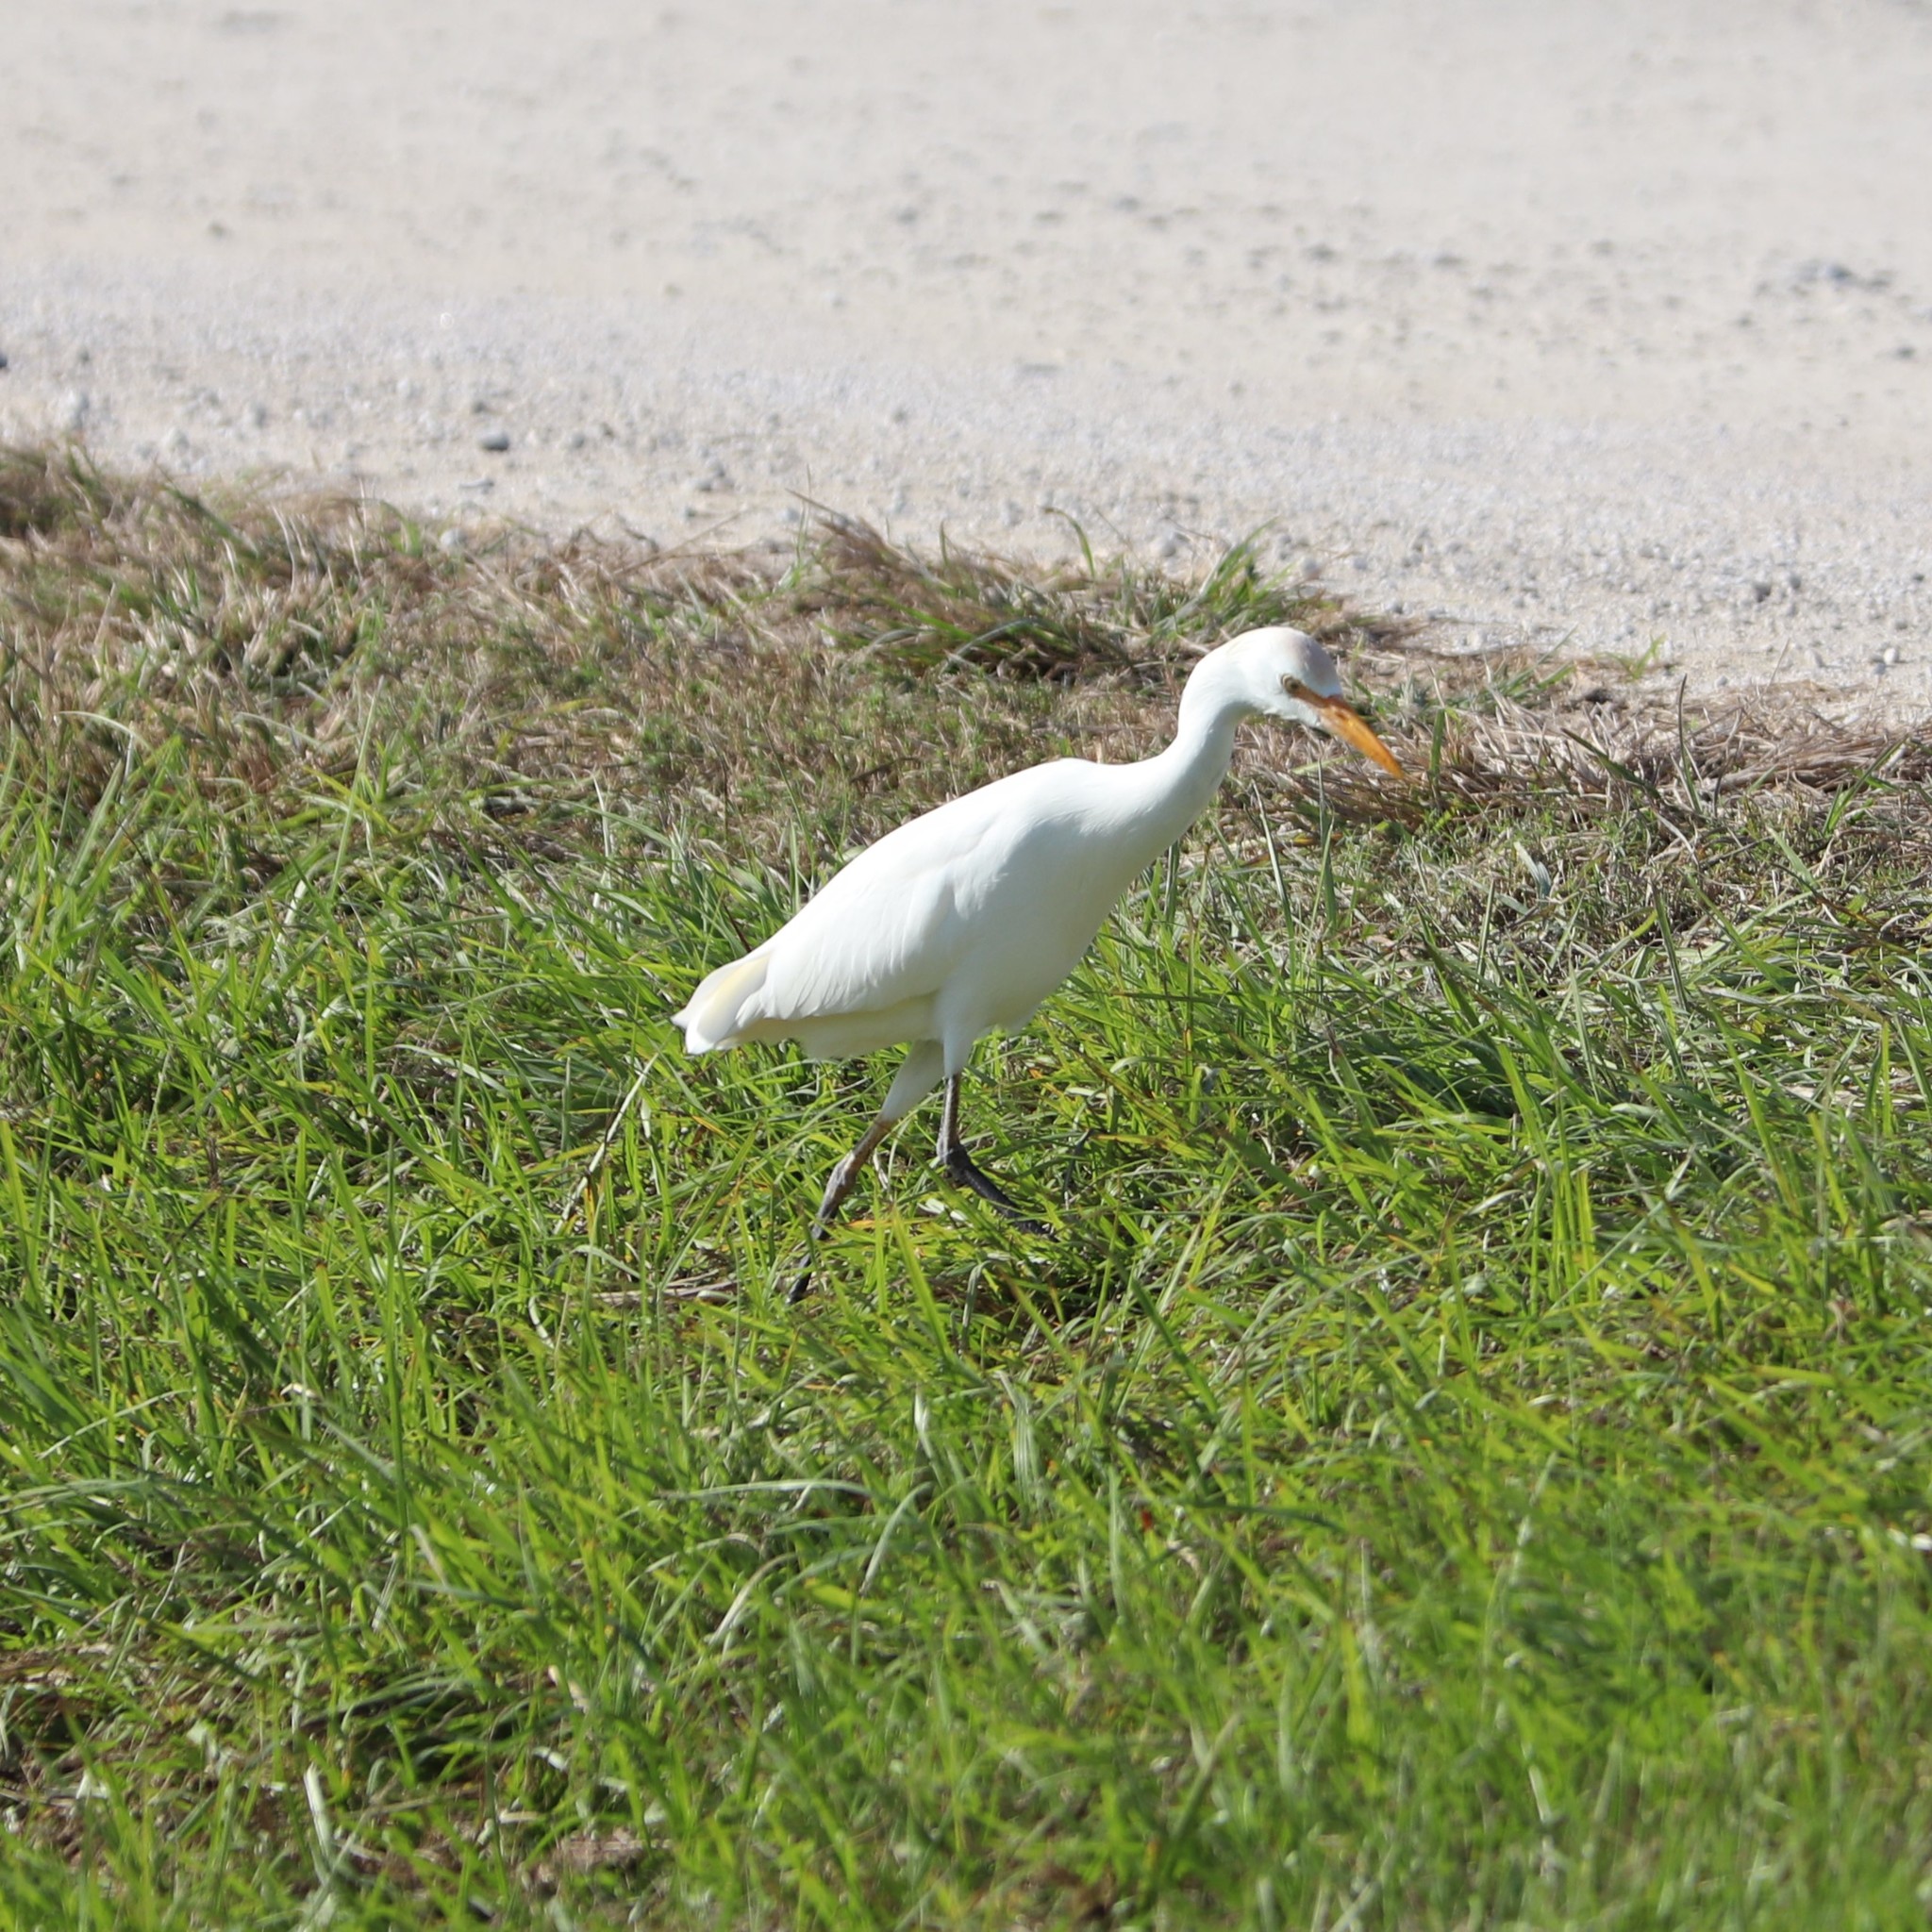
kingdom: Animalia
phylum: Chordata
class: Aves
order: Pelecaniformes
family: Ardeidae
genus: Bubulcus
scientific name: Bubulcus ibis
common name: Cattle egret
